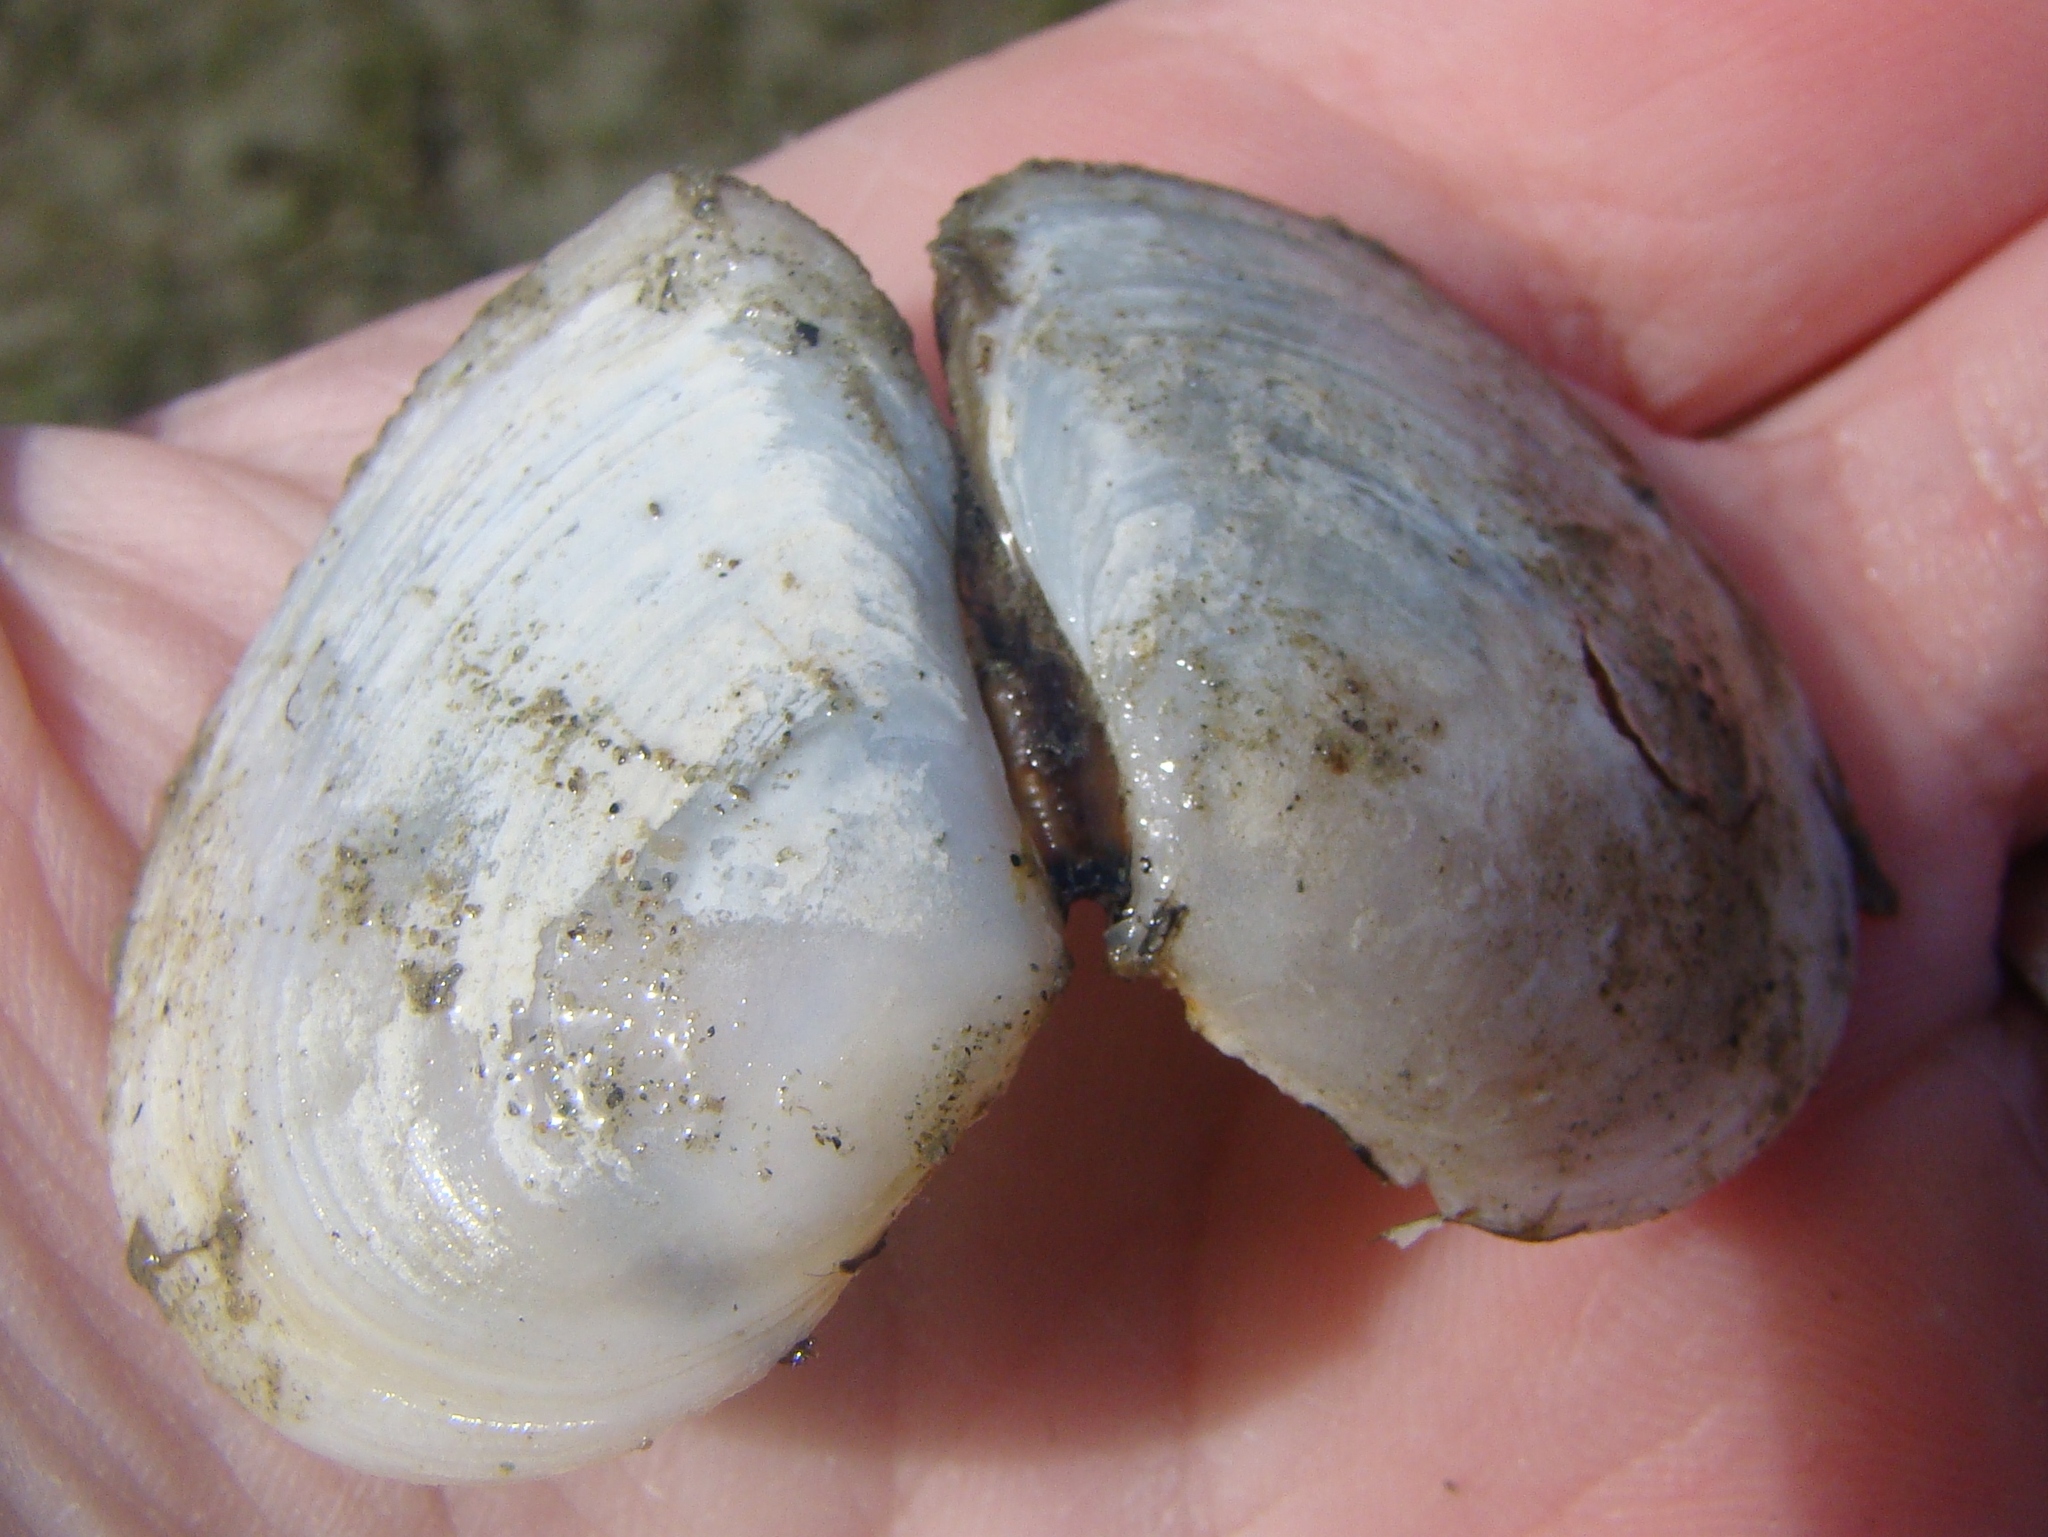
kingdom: Animalia
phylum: Mollusca
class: Bivalvia
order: Cardiida
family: Tellinidae
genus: Macomona
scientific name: Macomona liliana
